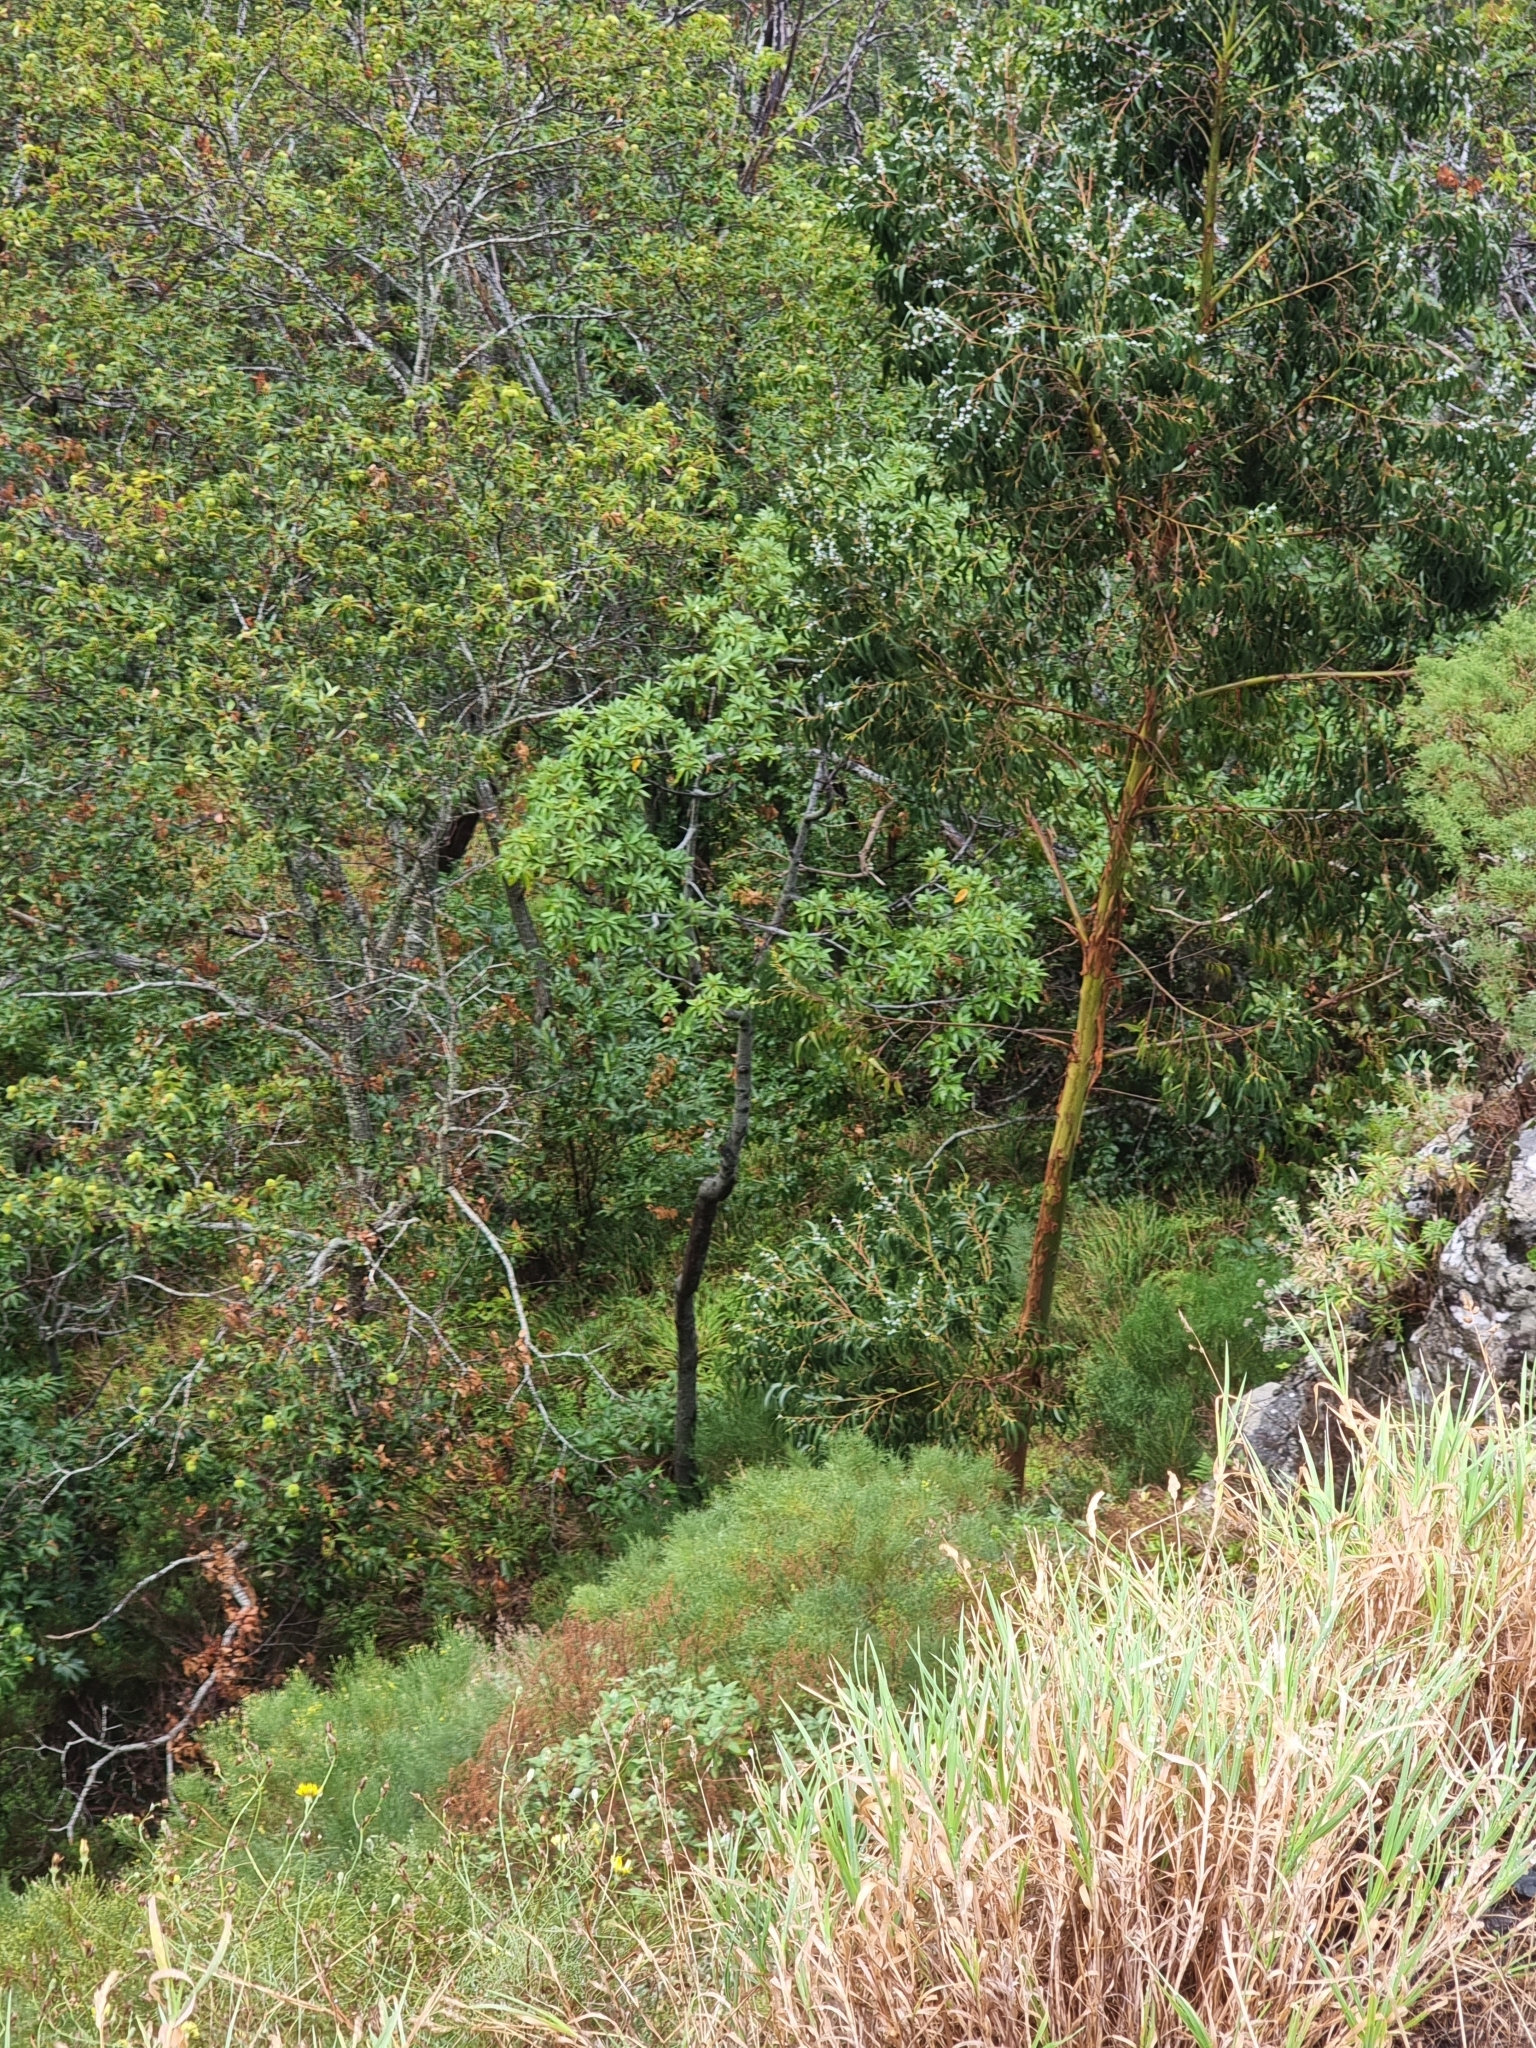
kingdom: Plantae
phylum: Tracheophyta
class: Magnoliopsida
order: Laurales
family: Lauraceae
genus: Persea
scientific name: Persea indica
